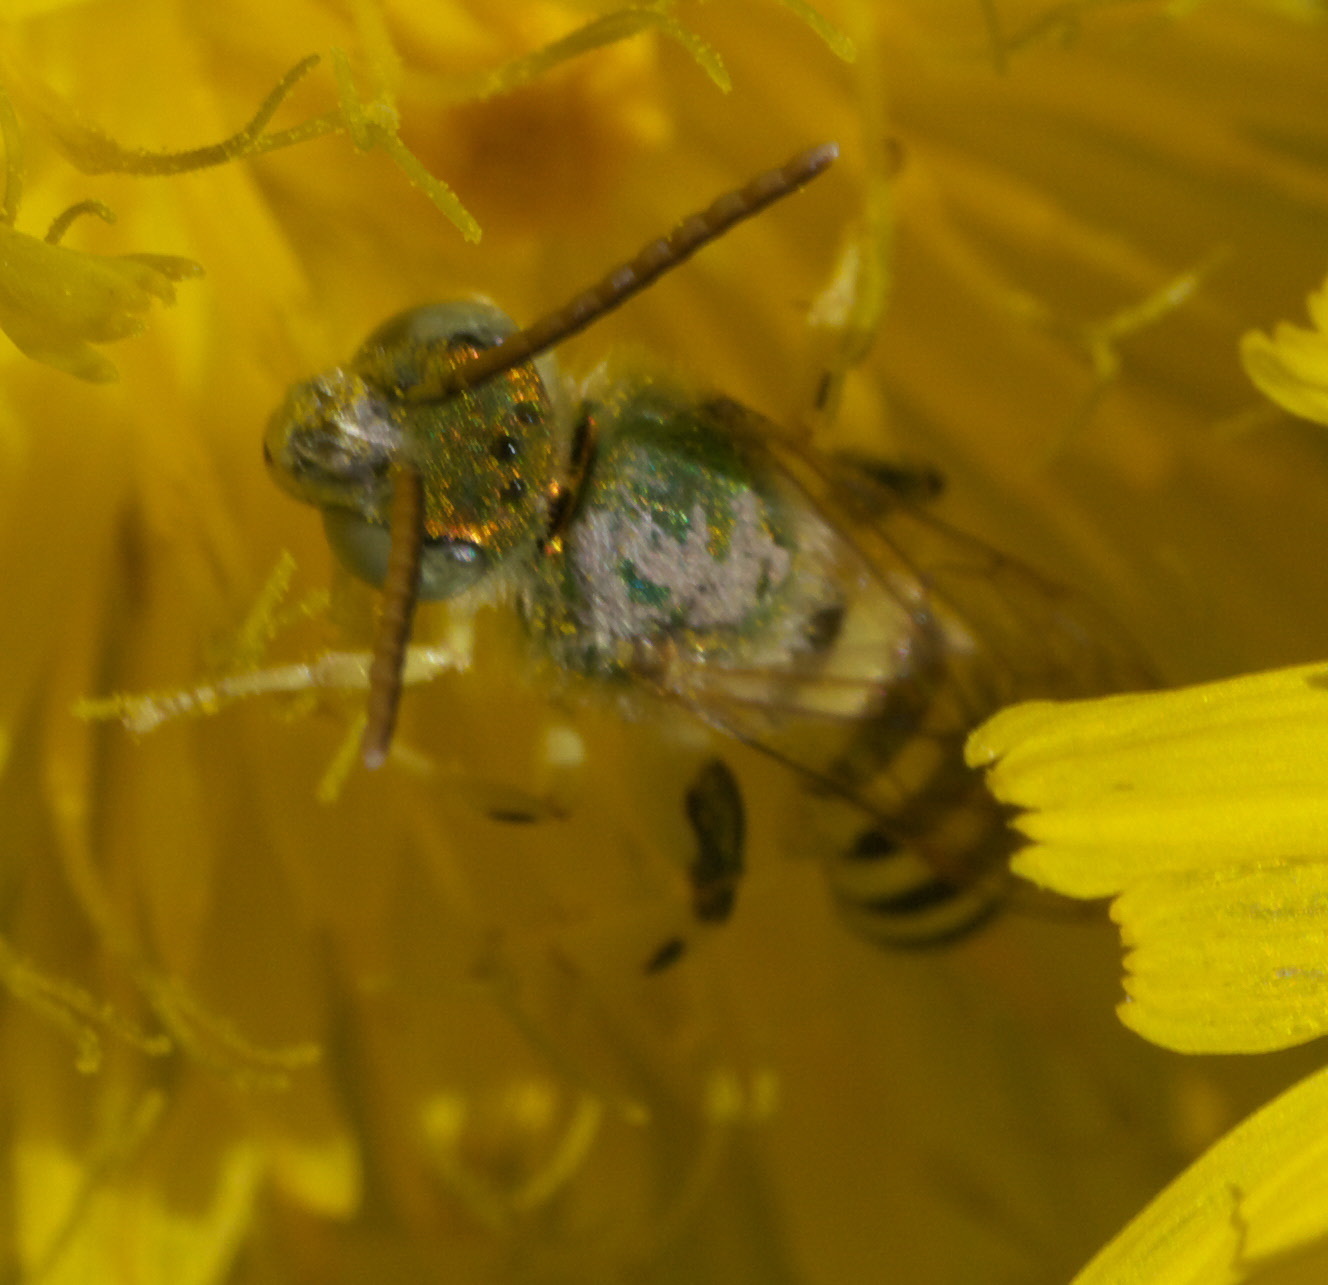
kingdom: Animalia
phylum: Arthropoda
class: Insecta
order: Hymenoptera
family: Halictidae
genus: Agapostemon
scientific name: Agapostemon
